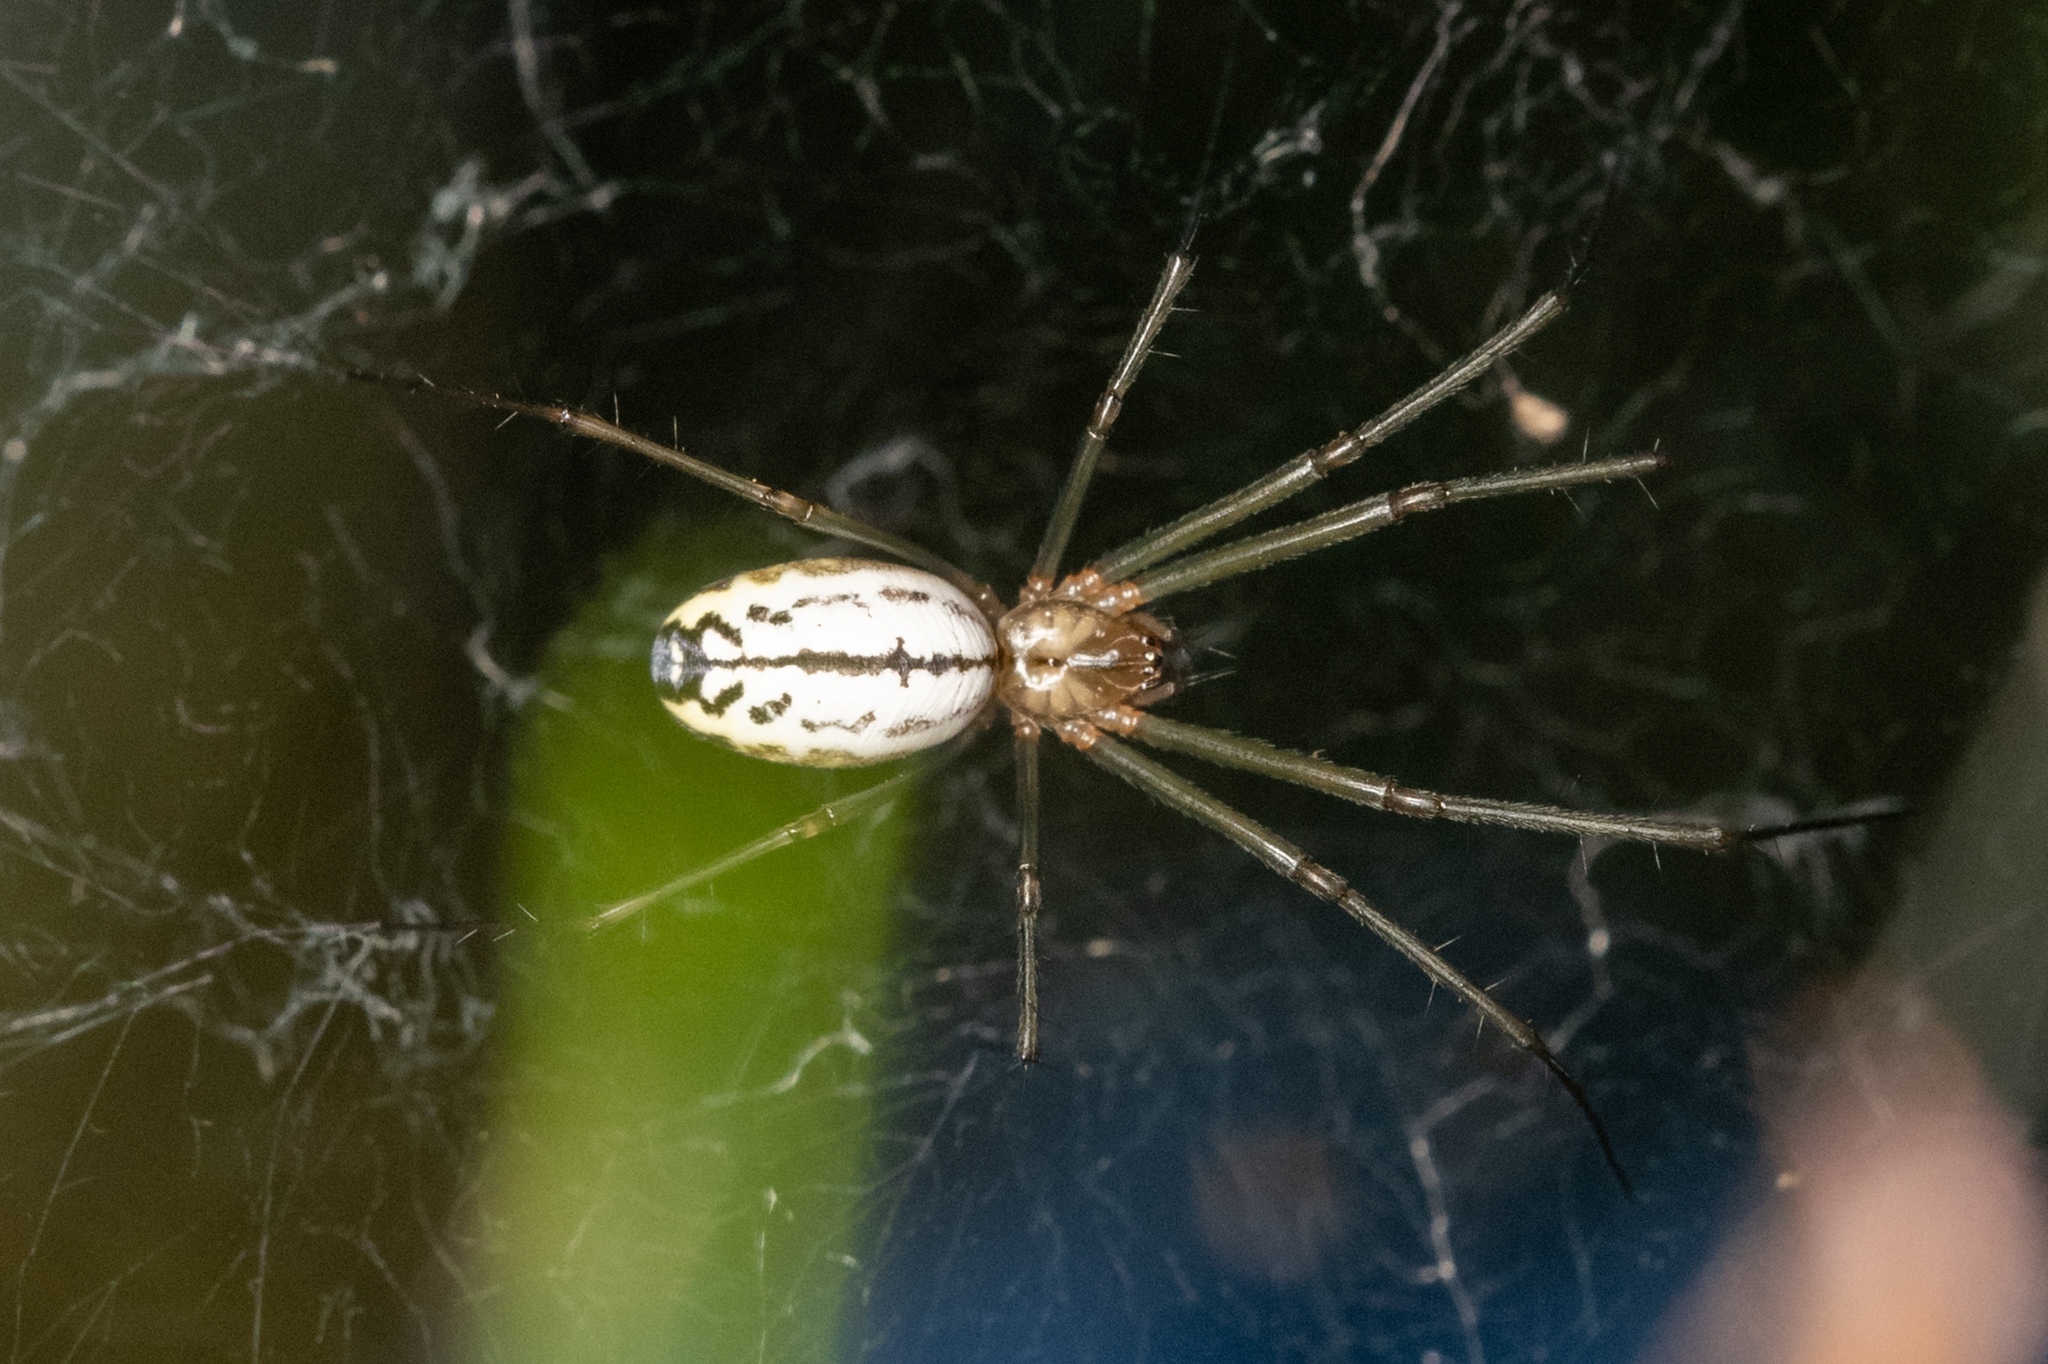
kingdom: Animalia
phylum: Arthropoda
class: Arachnida
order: Araneae
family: Linyphiidae
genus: Neriene
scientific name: Neriene litigiosa
